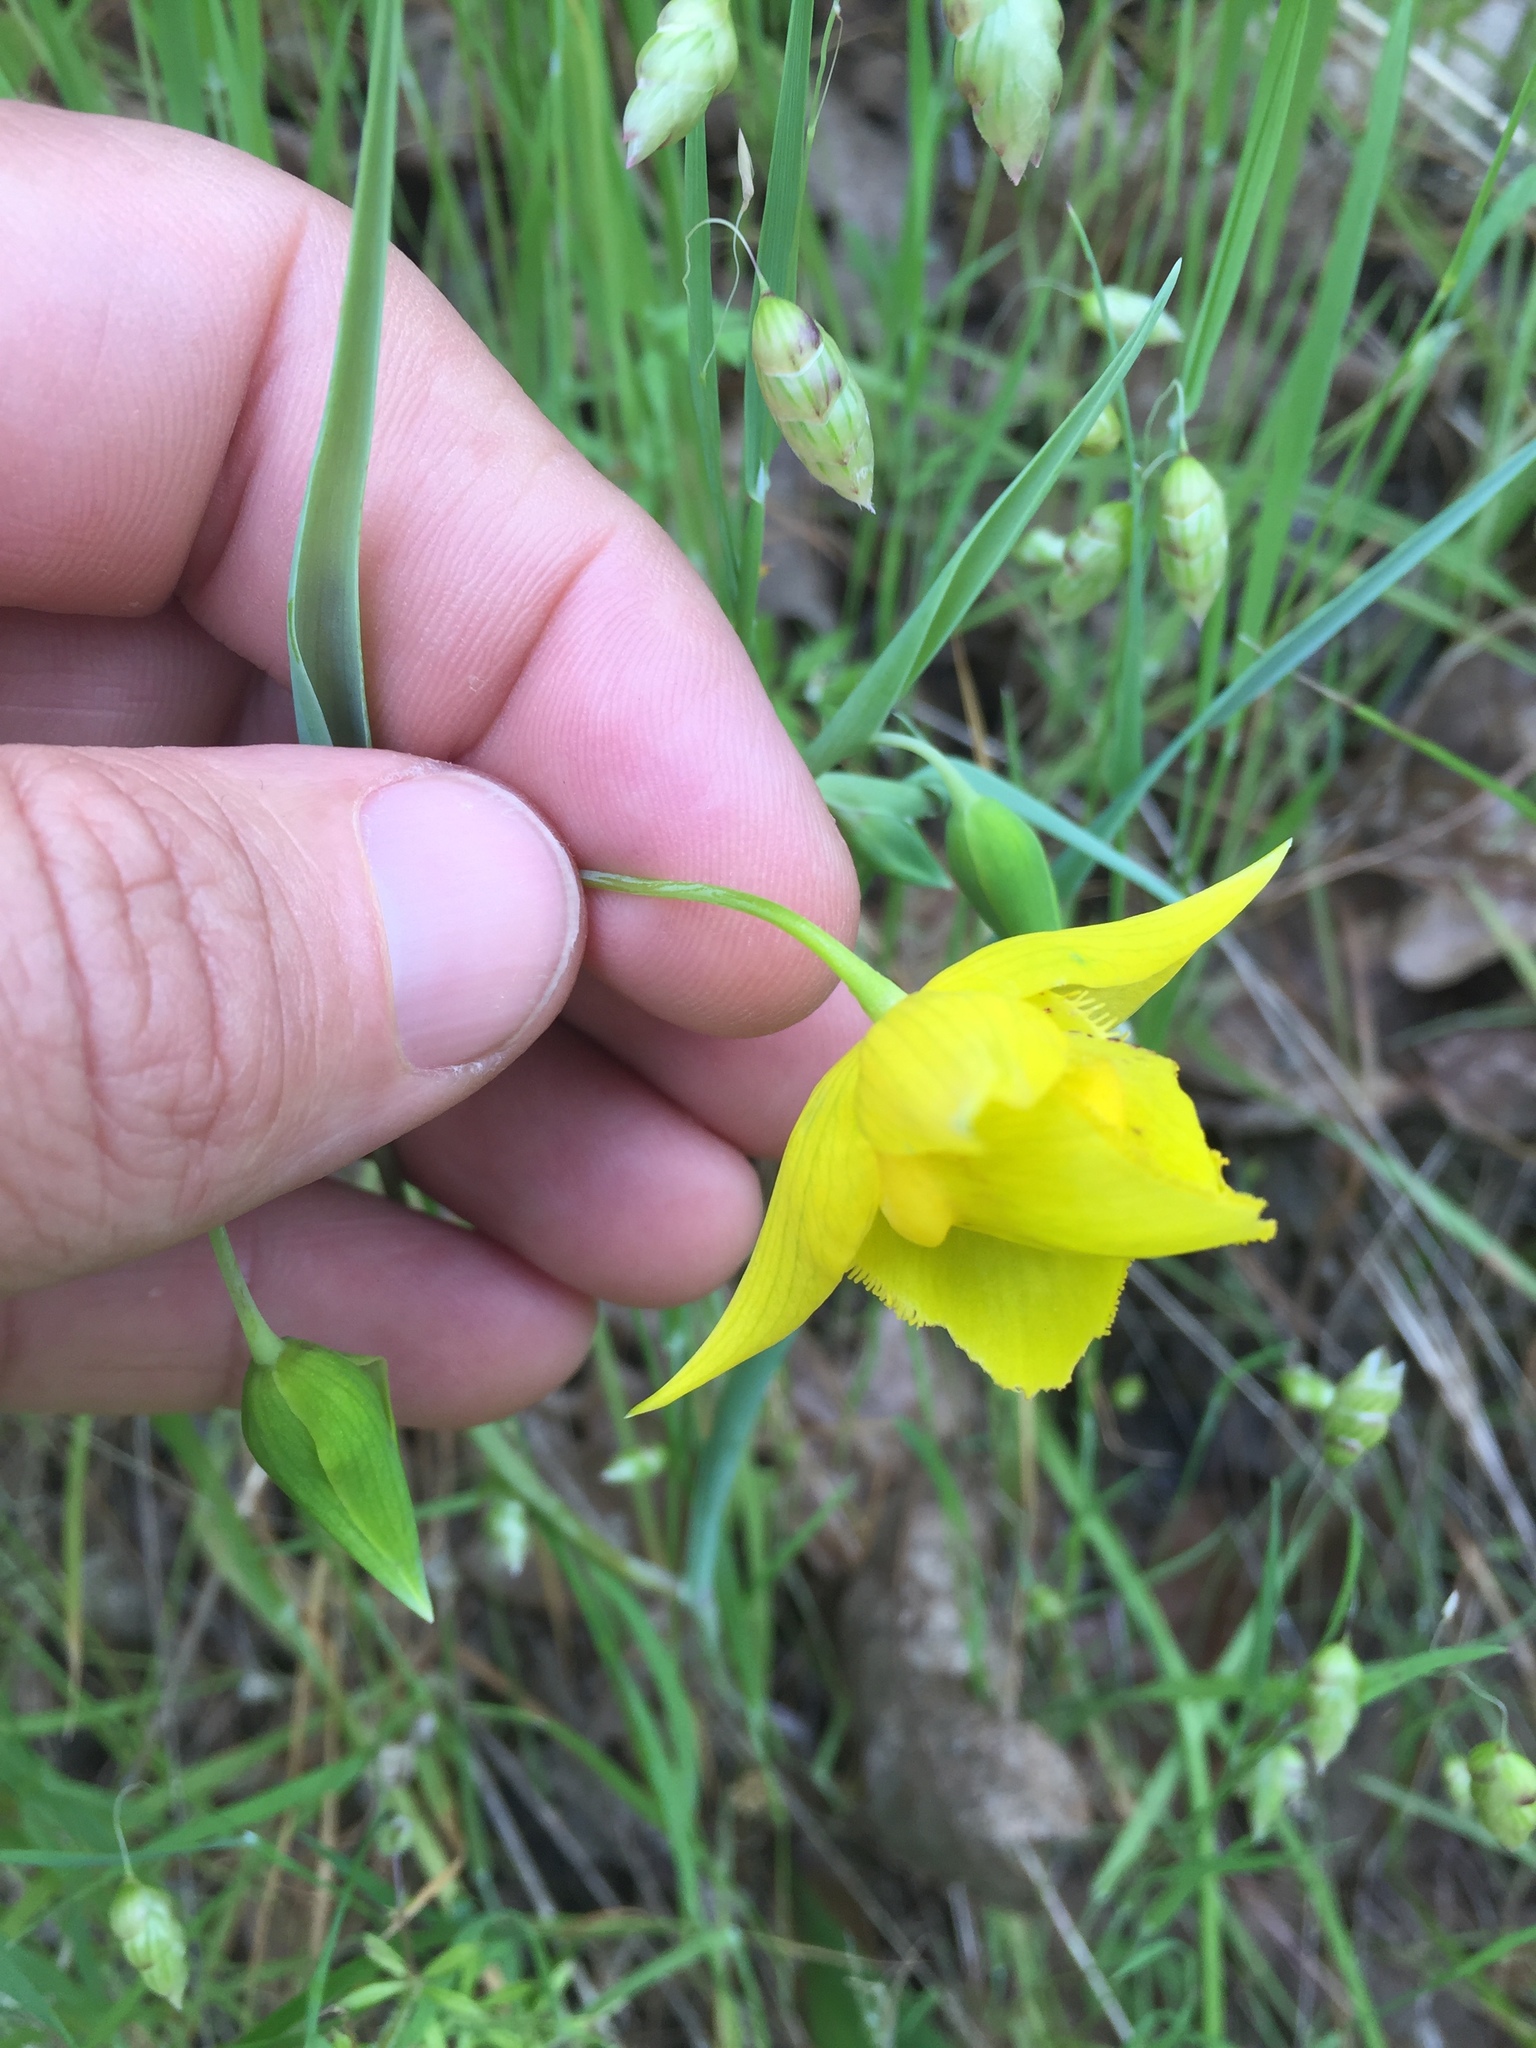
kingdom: Plantae
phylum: Tracheophyta
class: Liliopsida
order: Liliales
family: Liliaceae
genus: Calochortus
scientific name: Calochortus amabilis
